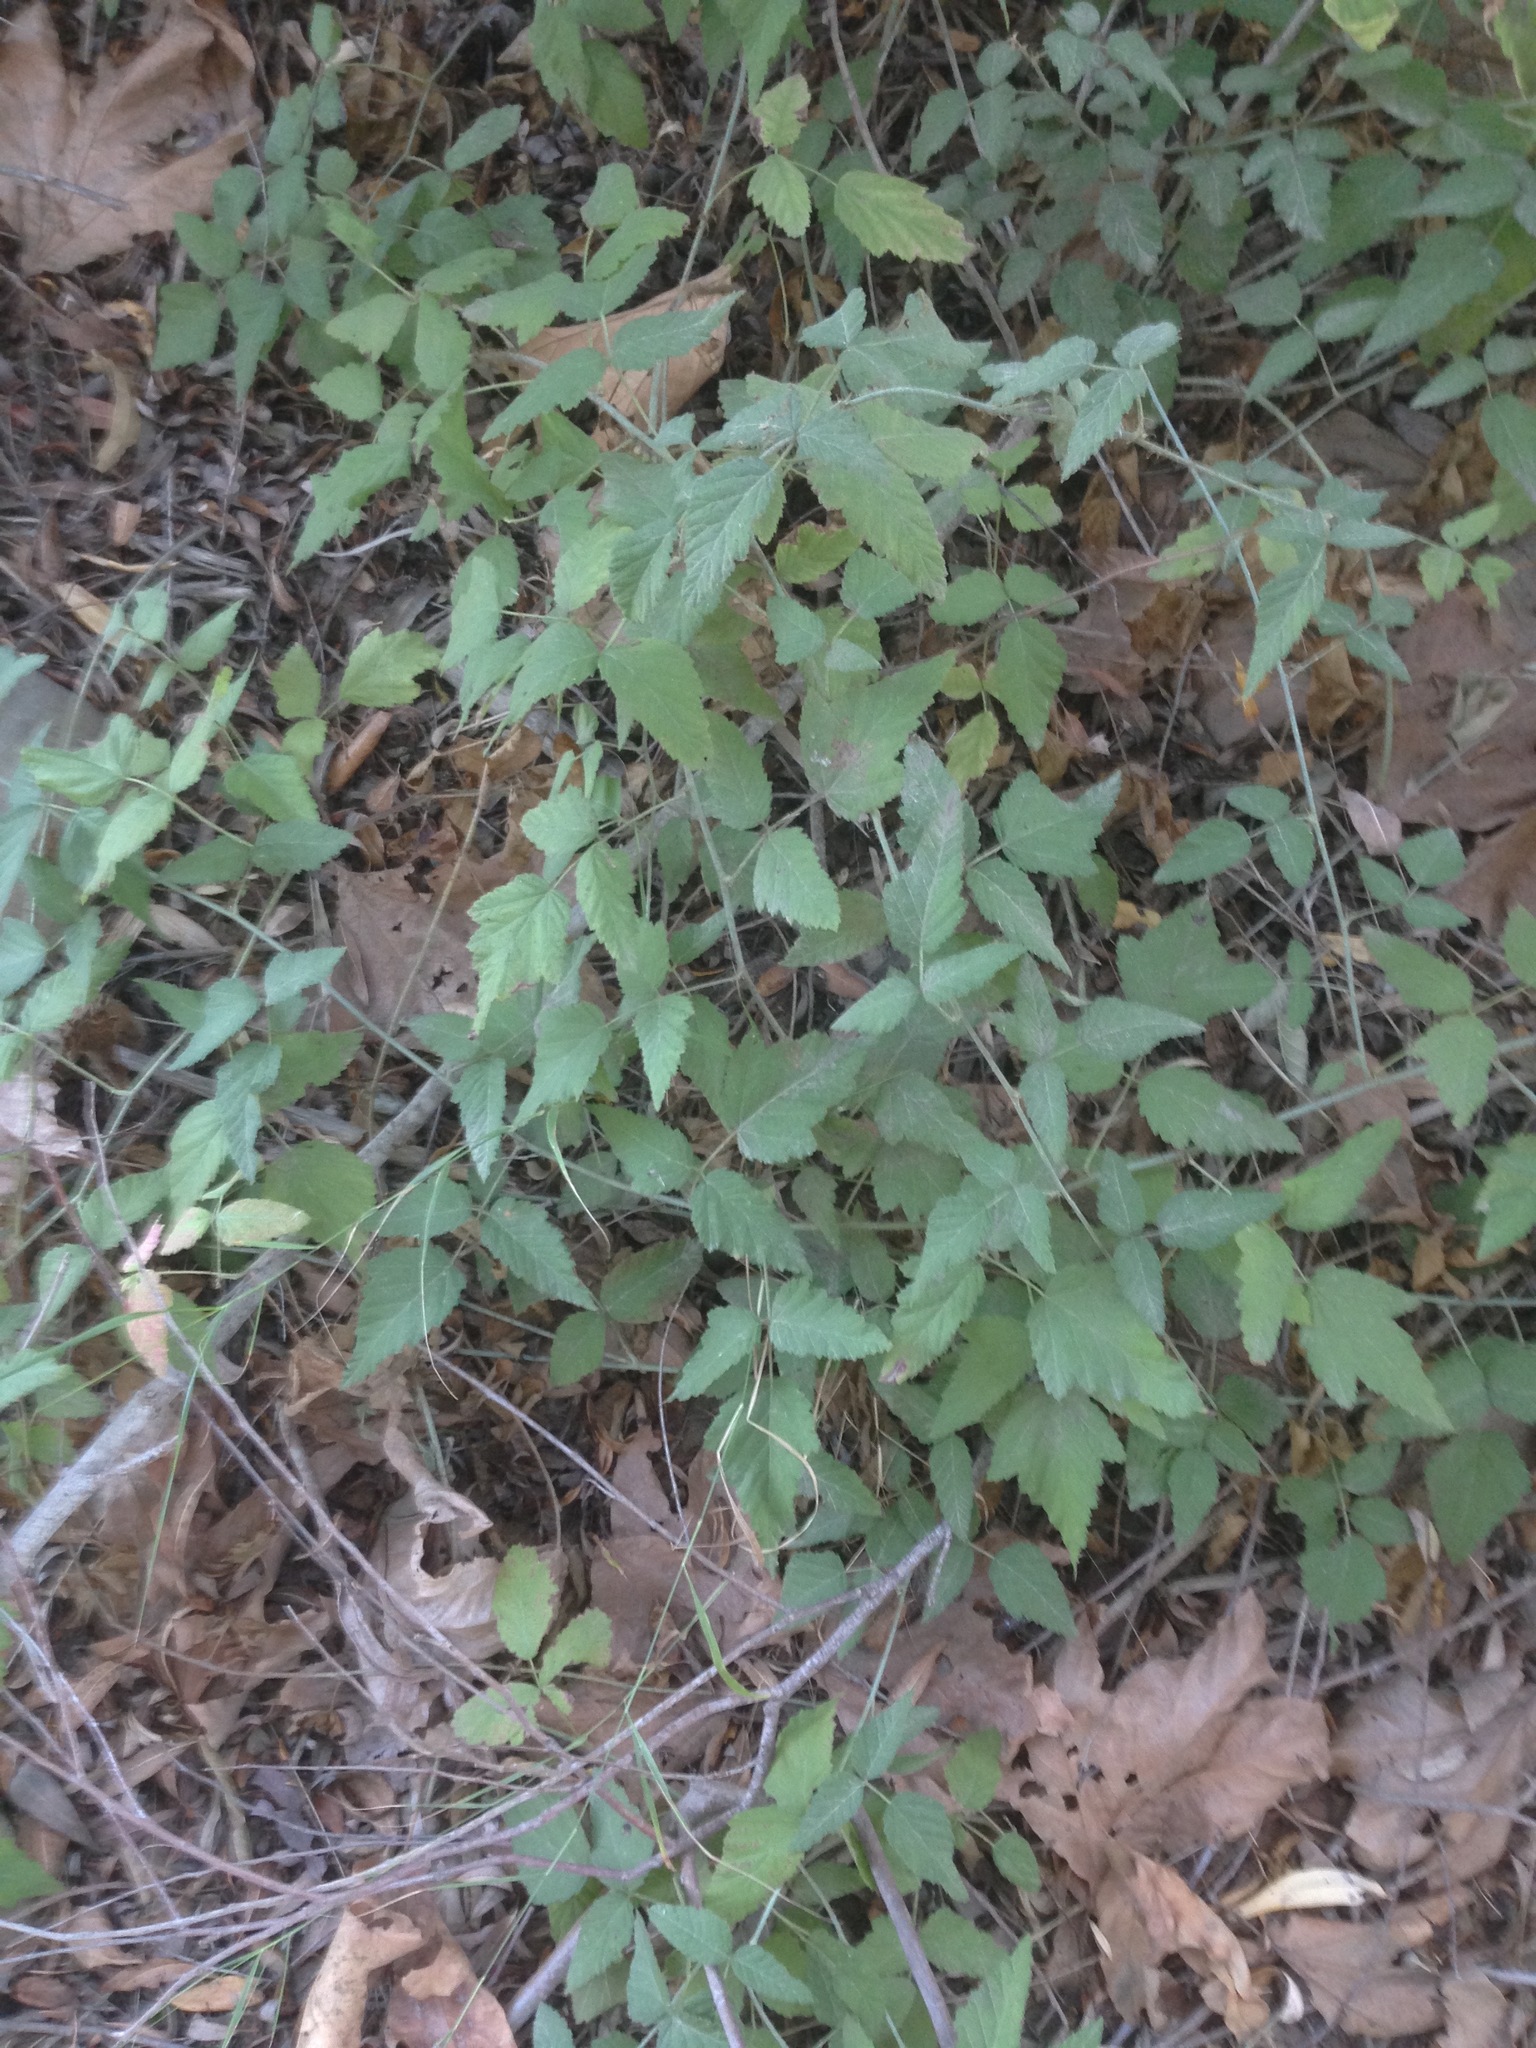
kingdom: Plantae
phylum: Tracheophyta
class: Magnoliopsida
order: Rosales
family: Rosaceae
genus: Rubus
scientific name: Rubus ursinus
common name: Pacific blackberry
